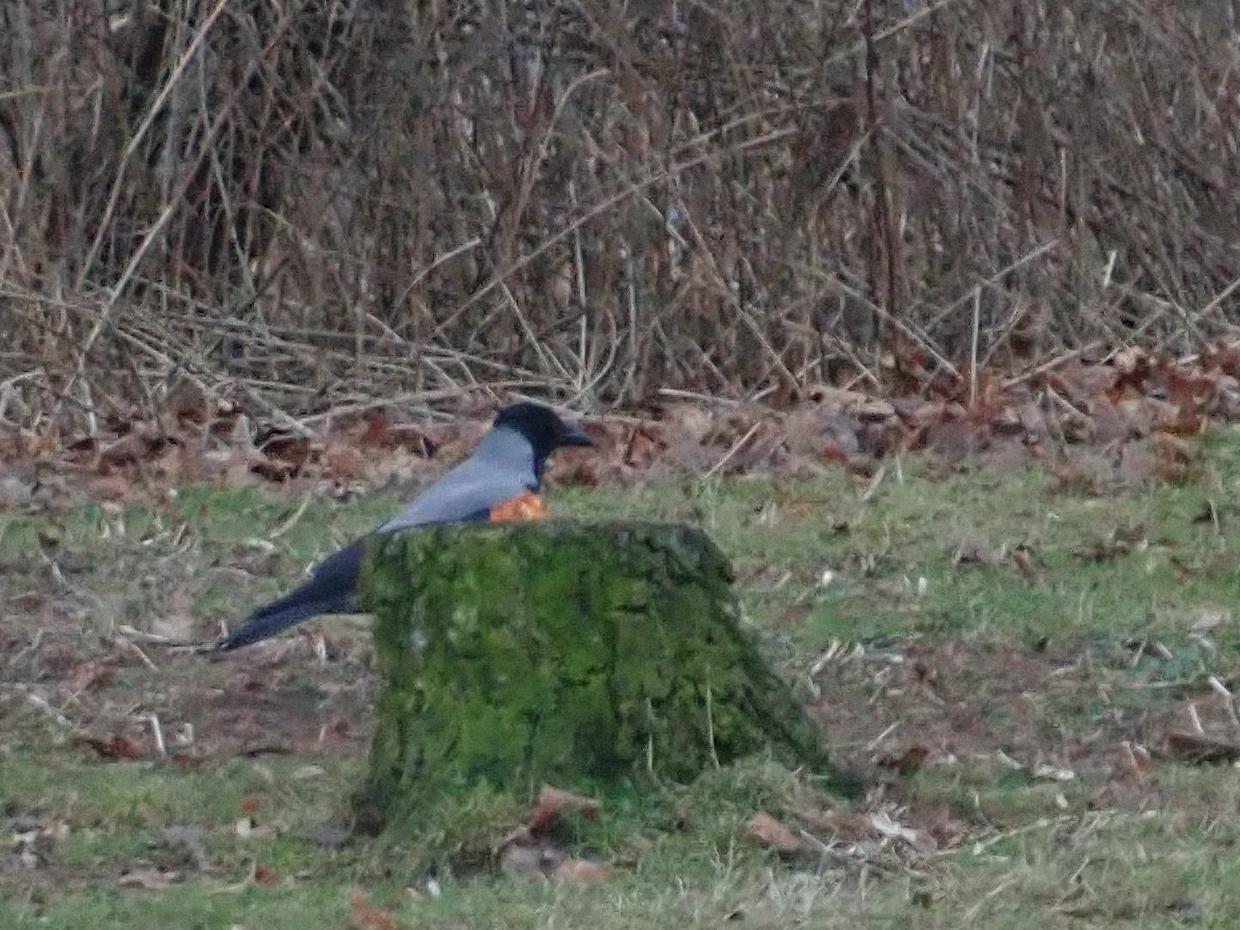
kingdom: Animalia
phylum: Chordata
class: Aves
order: Passeriformes
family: Corvidae
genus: Corvus
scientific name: Corvus cornix
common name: Hooded crow
